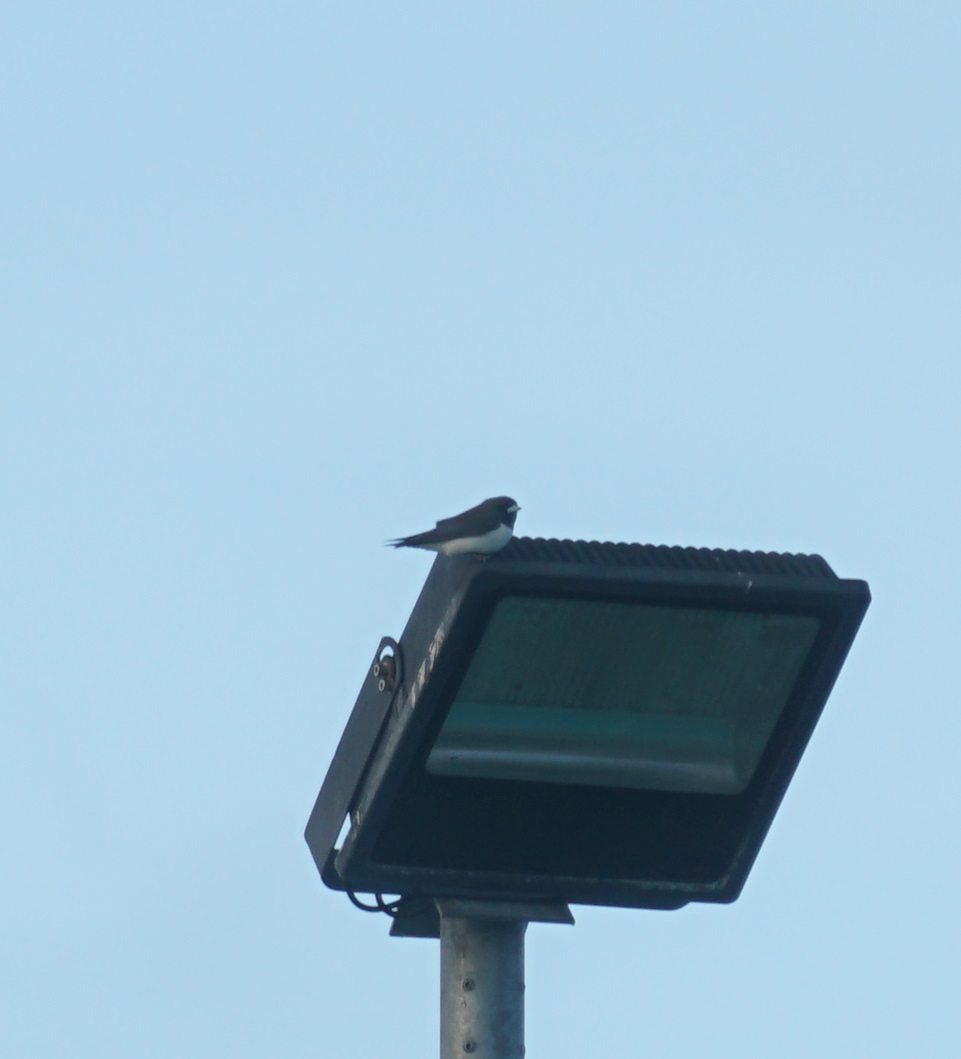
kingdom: Animalia
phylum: Chordata
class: Aves
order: Passeriformes
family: Artamidae
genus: Artamus
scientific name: Artamus leucoryn
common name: White-breasted woodswallow
